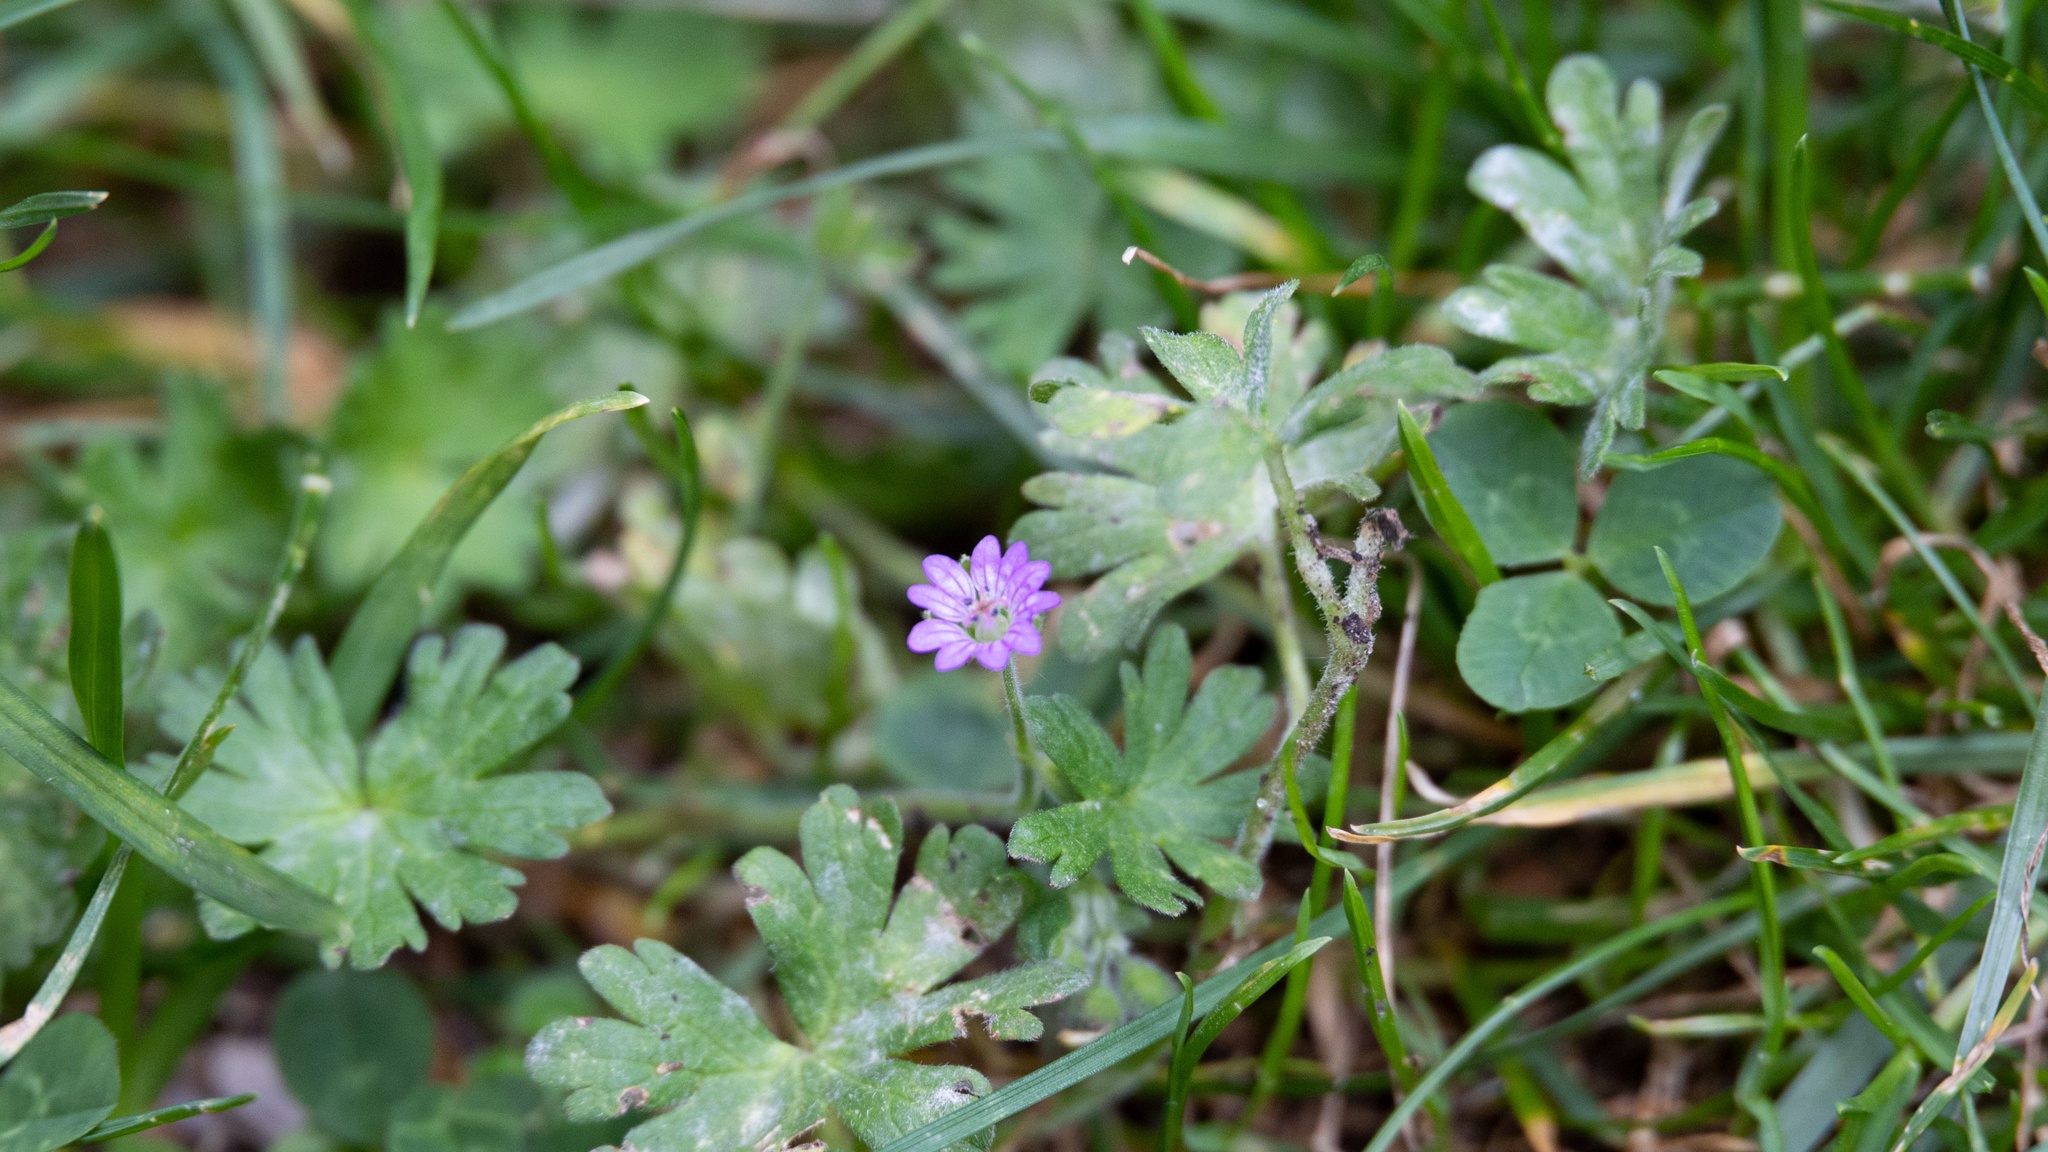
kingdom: Plantae
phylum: Tracheophyta
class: Magnoliopsida
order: Geraniales
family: Geraniaceae
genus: Geranium
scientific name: Geranium pyrenaicum
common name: Hedgerow crane's-bill
